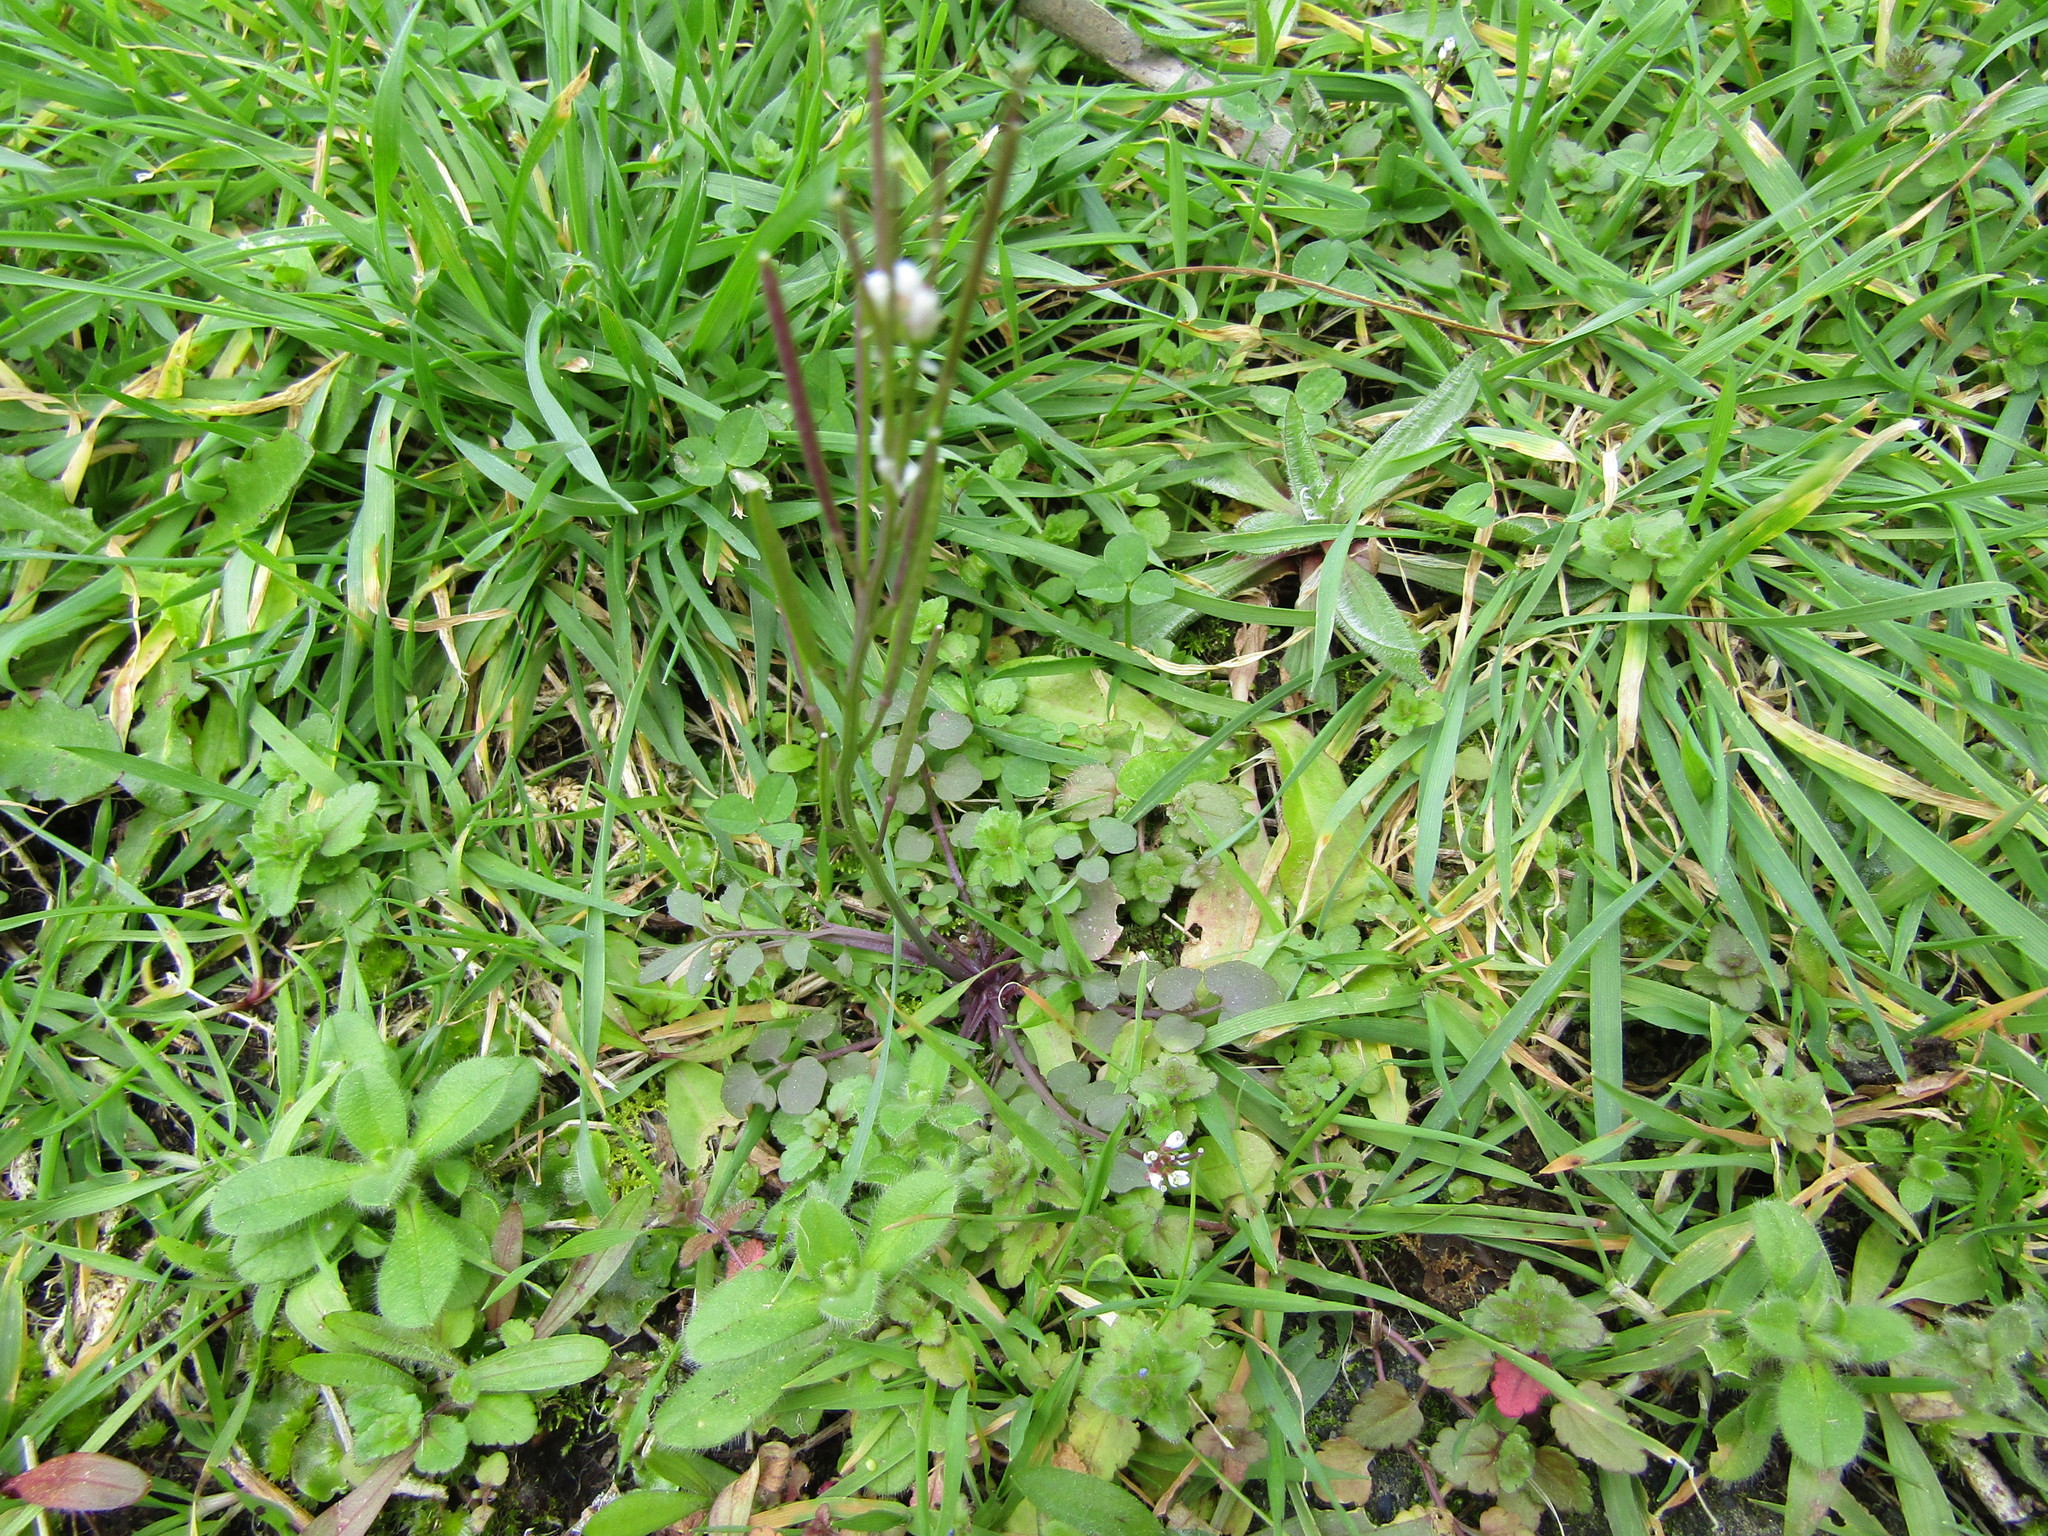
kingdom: Plantae
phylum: Tracheophyta
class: Magnoliopsida
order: Brassicales
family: Brassicaceae
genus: Cardamine
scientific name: Cardamine hirsuta
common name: Hairy bittercress
